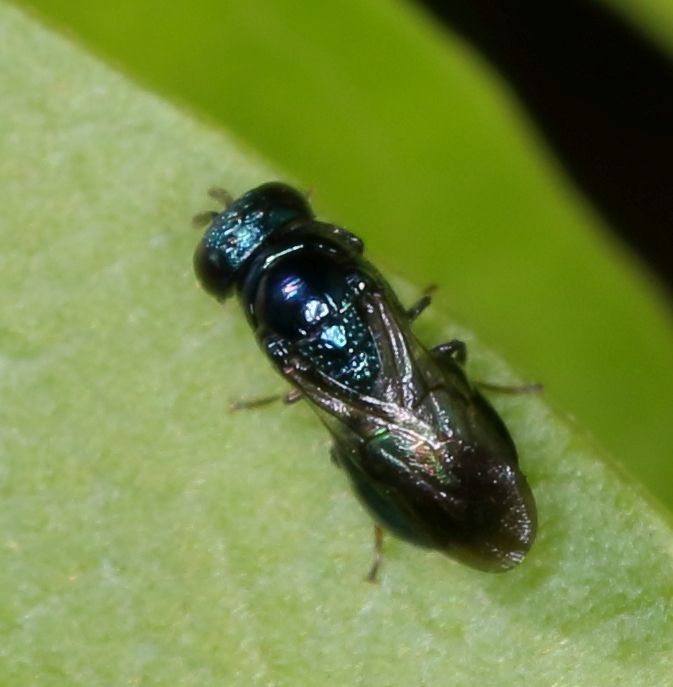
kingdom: Animalia
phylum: Arthropoda
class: Insecta
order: Hymenoptera
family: Chrysididae
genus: Holophris
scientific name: Holophris
